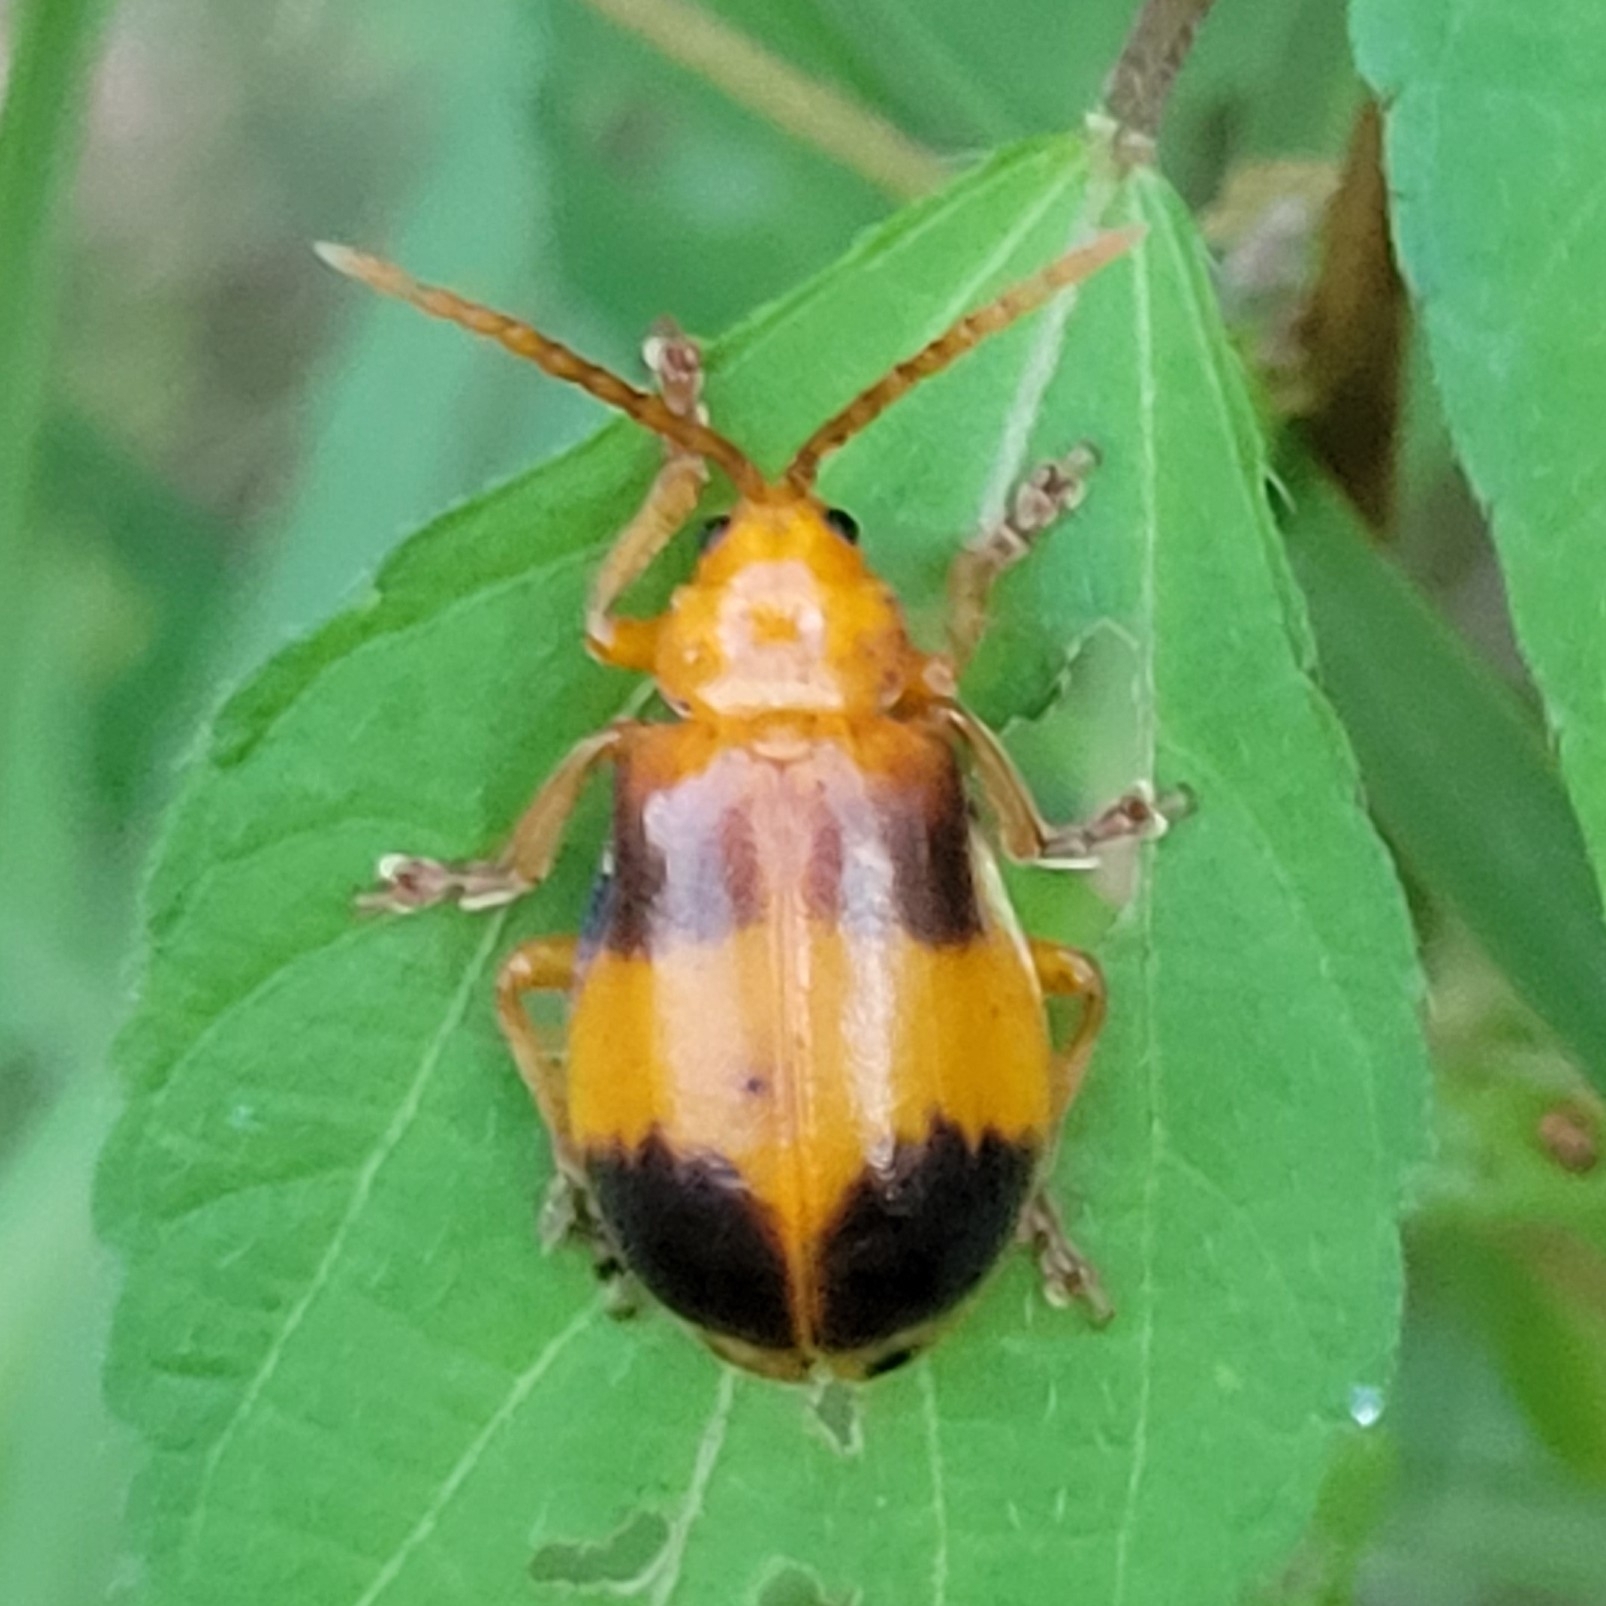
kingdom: Animalia
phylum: Arthropoda
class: Insecta
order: Coleoptera
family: Chrysomelidae
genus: Monocesta
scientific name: Monocesta coryli
